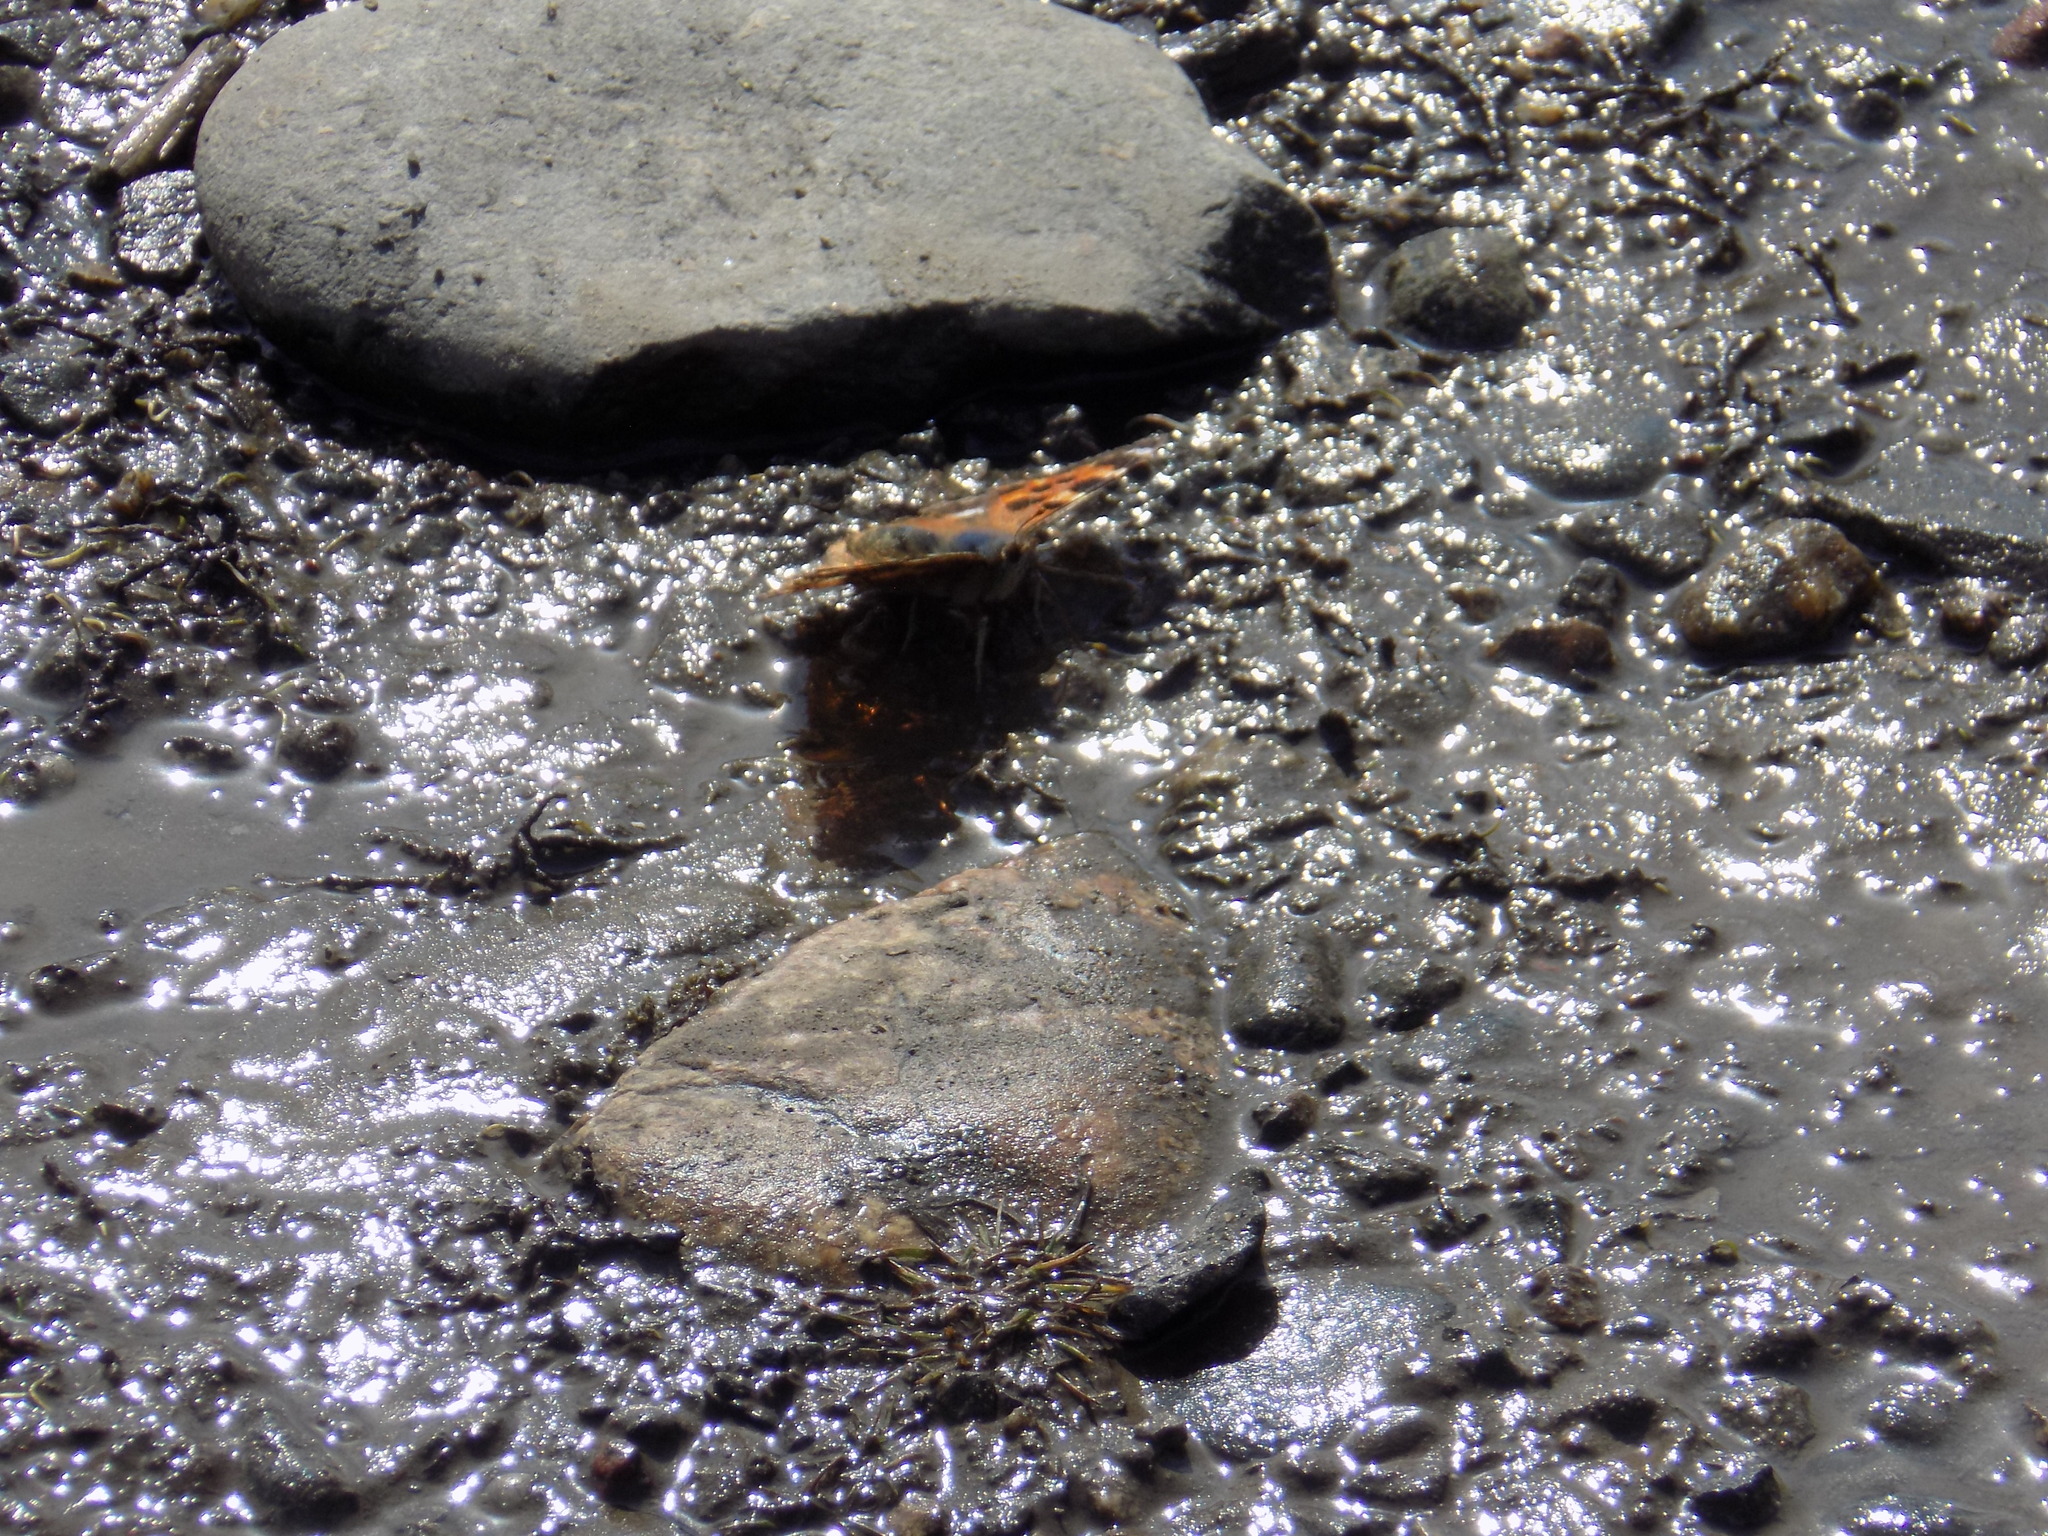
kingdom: Animalia
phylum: Arthropoda
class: Insecta
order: Lepidoptera
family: Nymphalidae
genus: Polygonia
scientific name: Polygonia vaualbum
